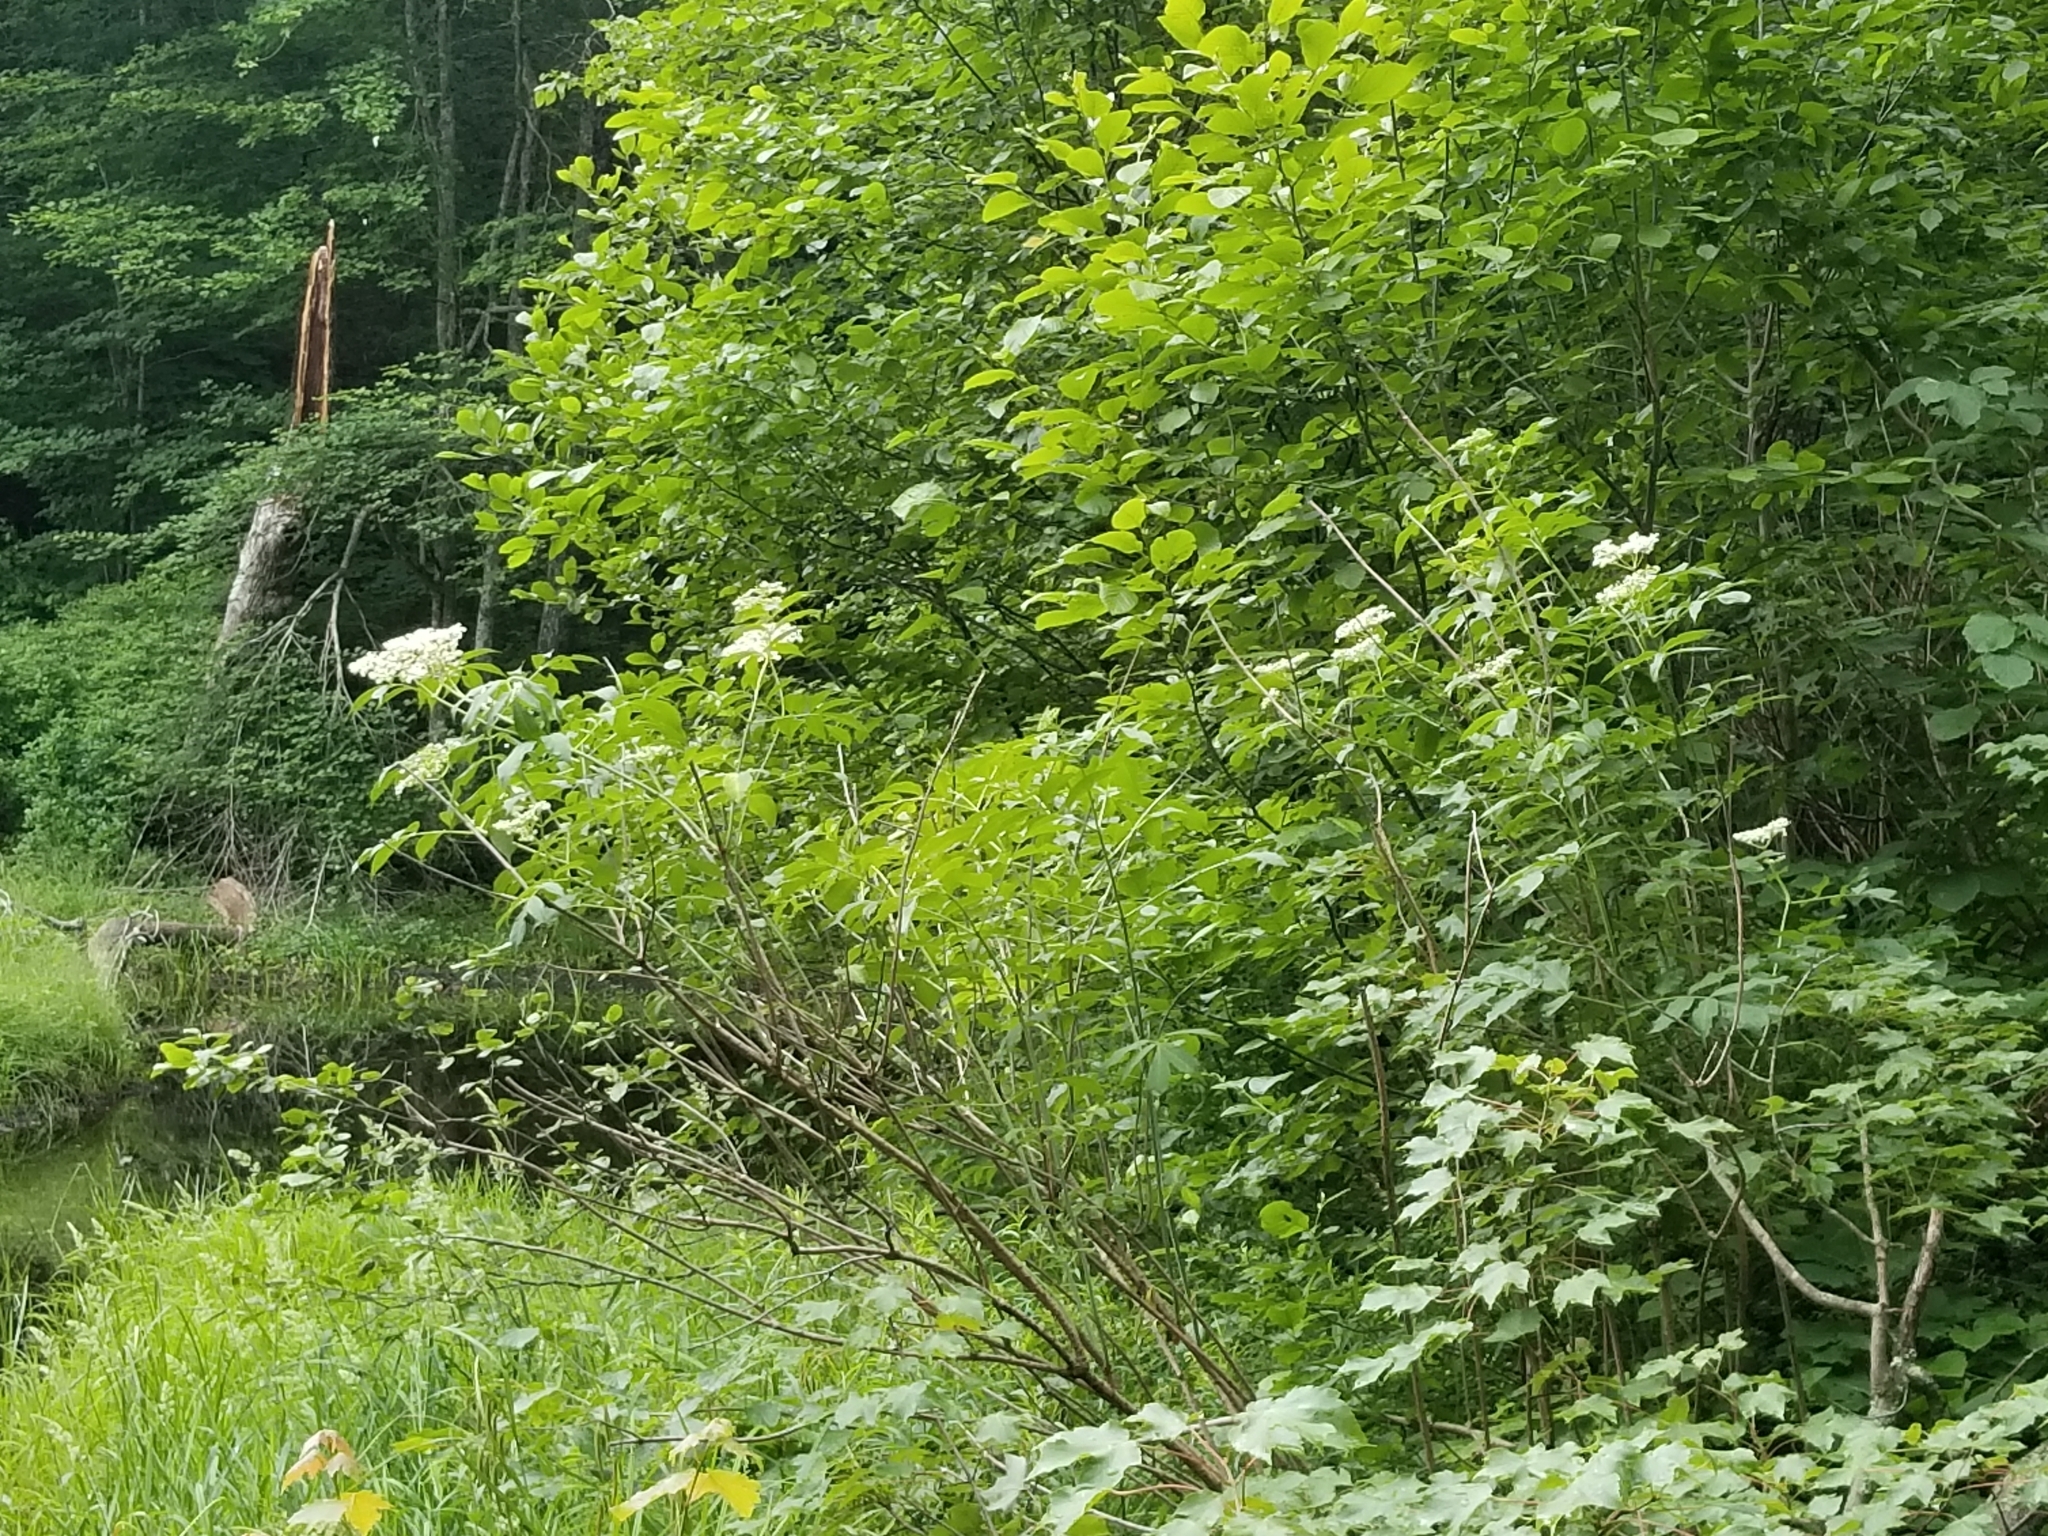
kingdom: Plantae
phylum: Tracheophyta
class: Magnoliopsida
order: Dipsacales
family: Viburnaceae
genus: Sambucus
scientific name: Sambucus canadensis
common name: American elder
